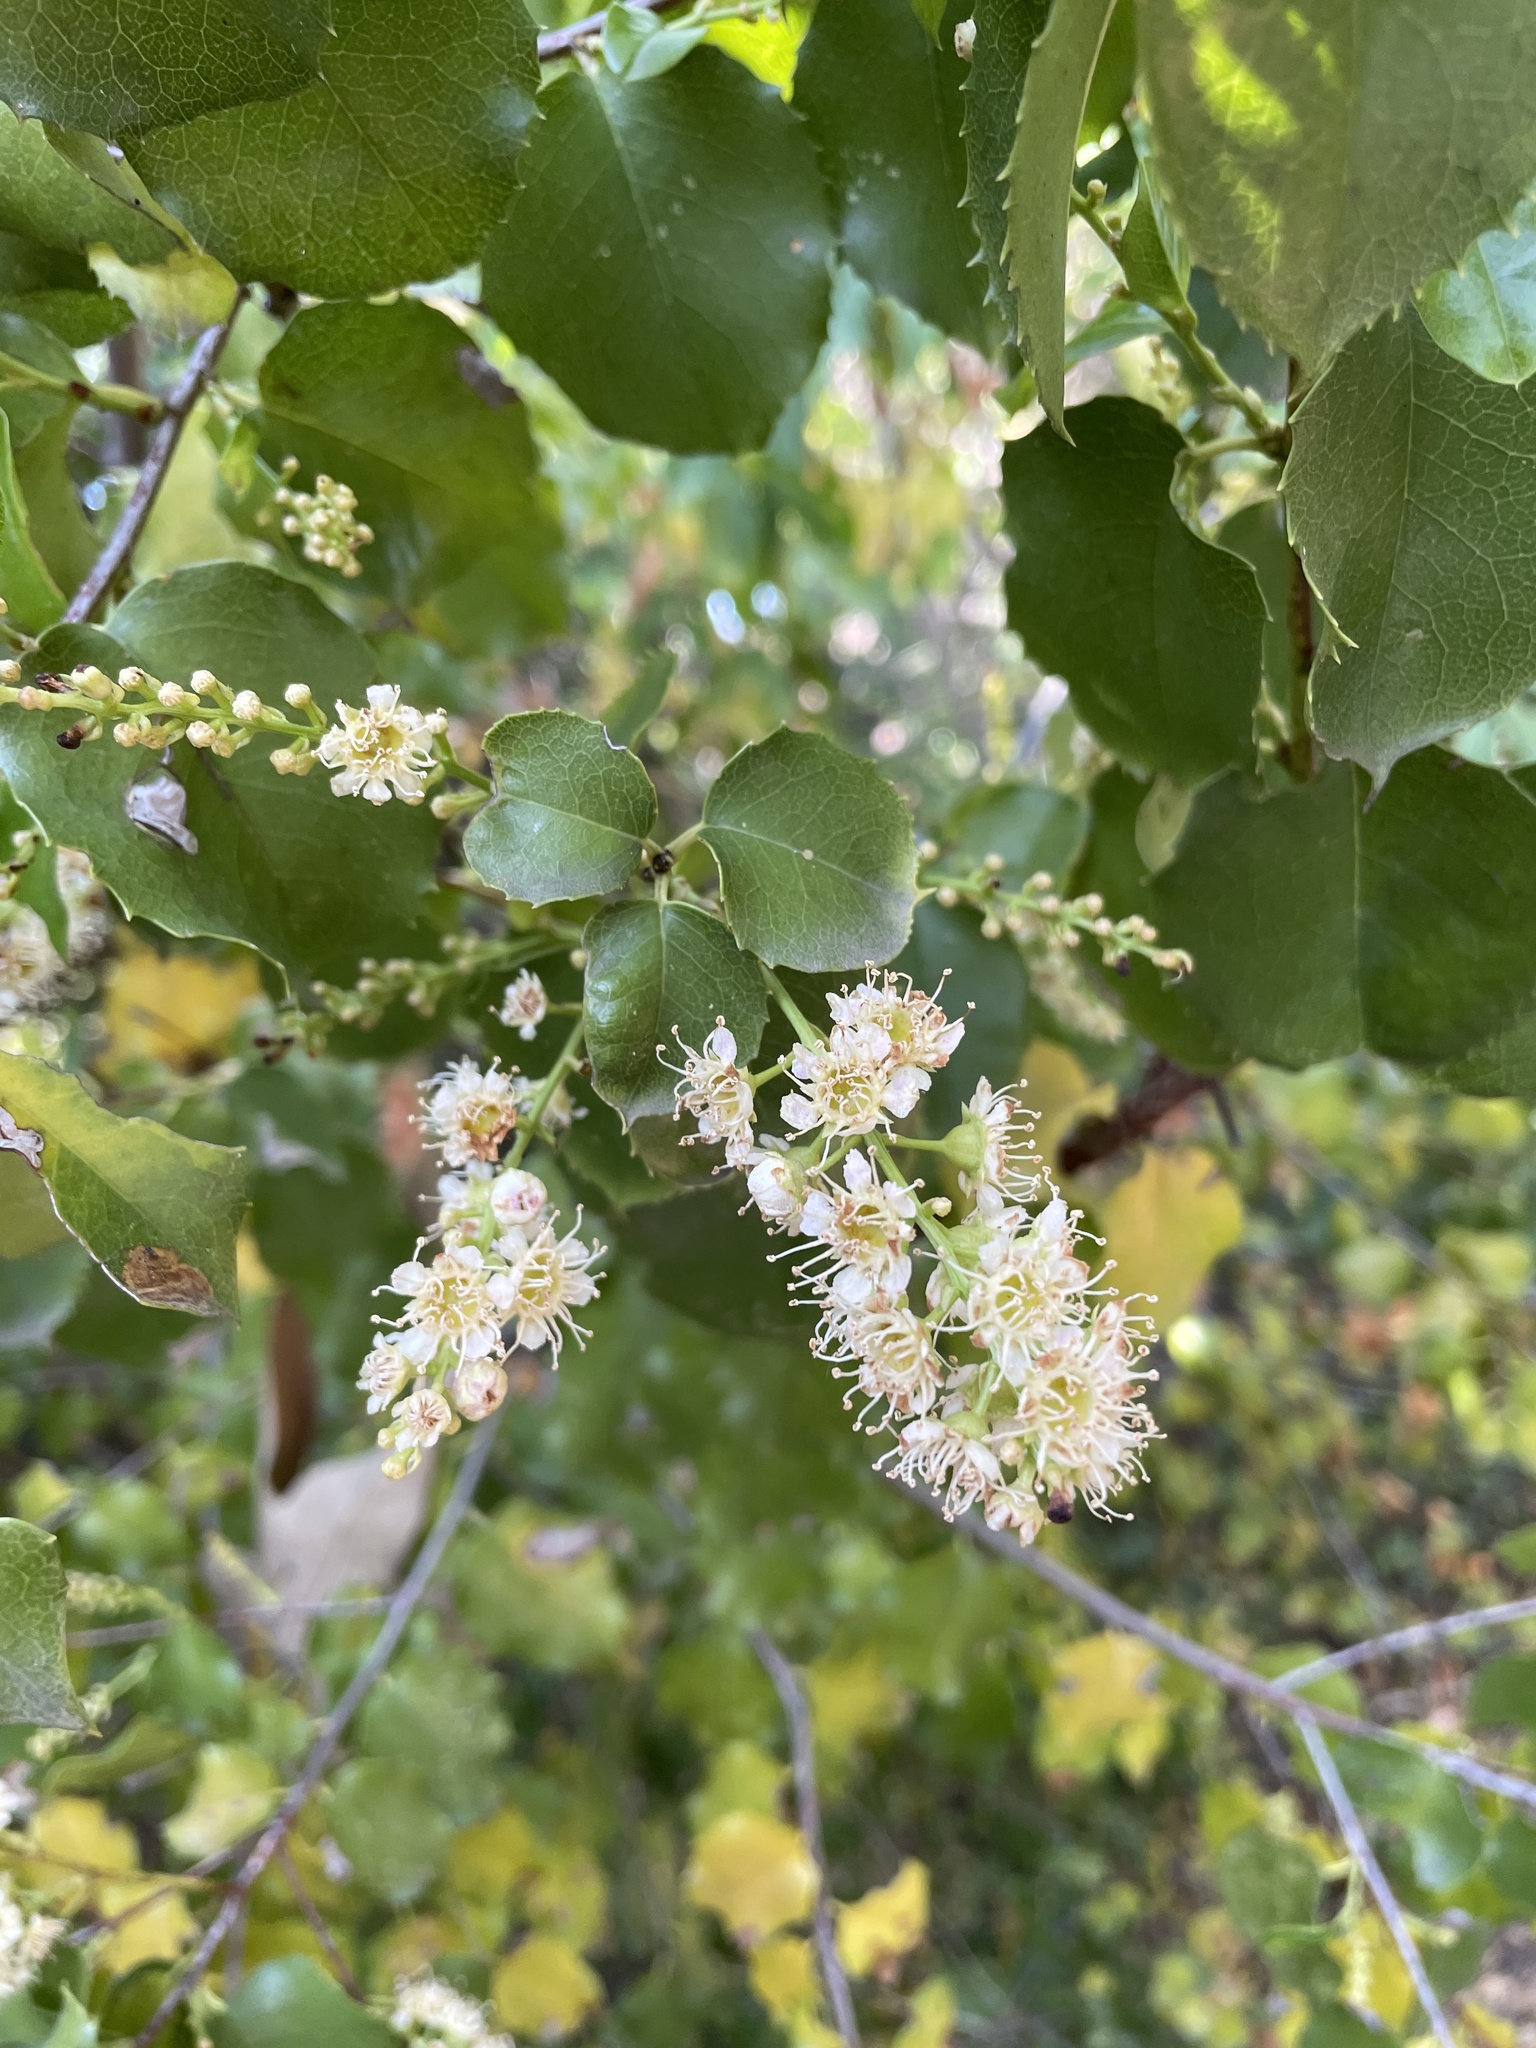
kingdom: Plantae
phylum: Tracheophyta
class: Magnoliopsida
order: Rosales
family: Rosaceae
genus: Prunus
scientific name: Prunus ilicifolia
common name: Hollyleaf cherry
